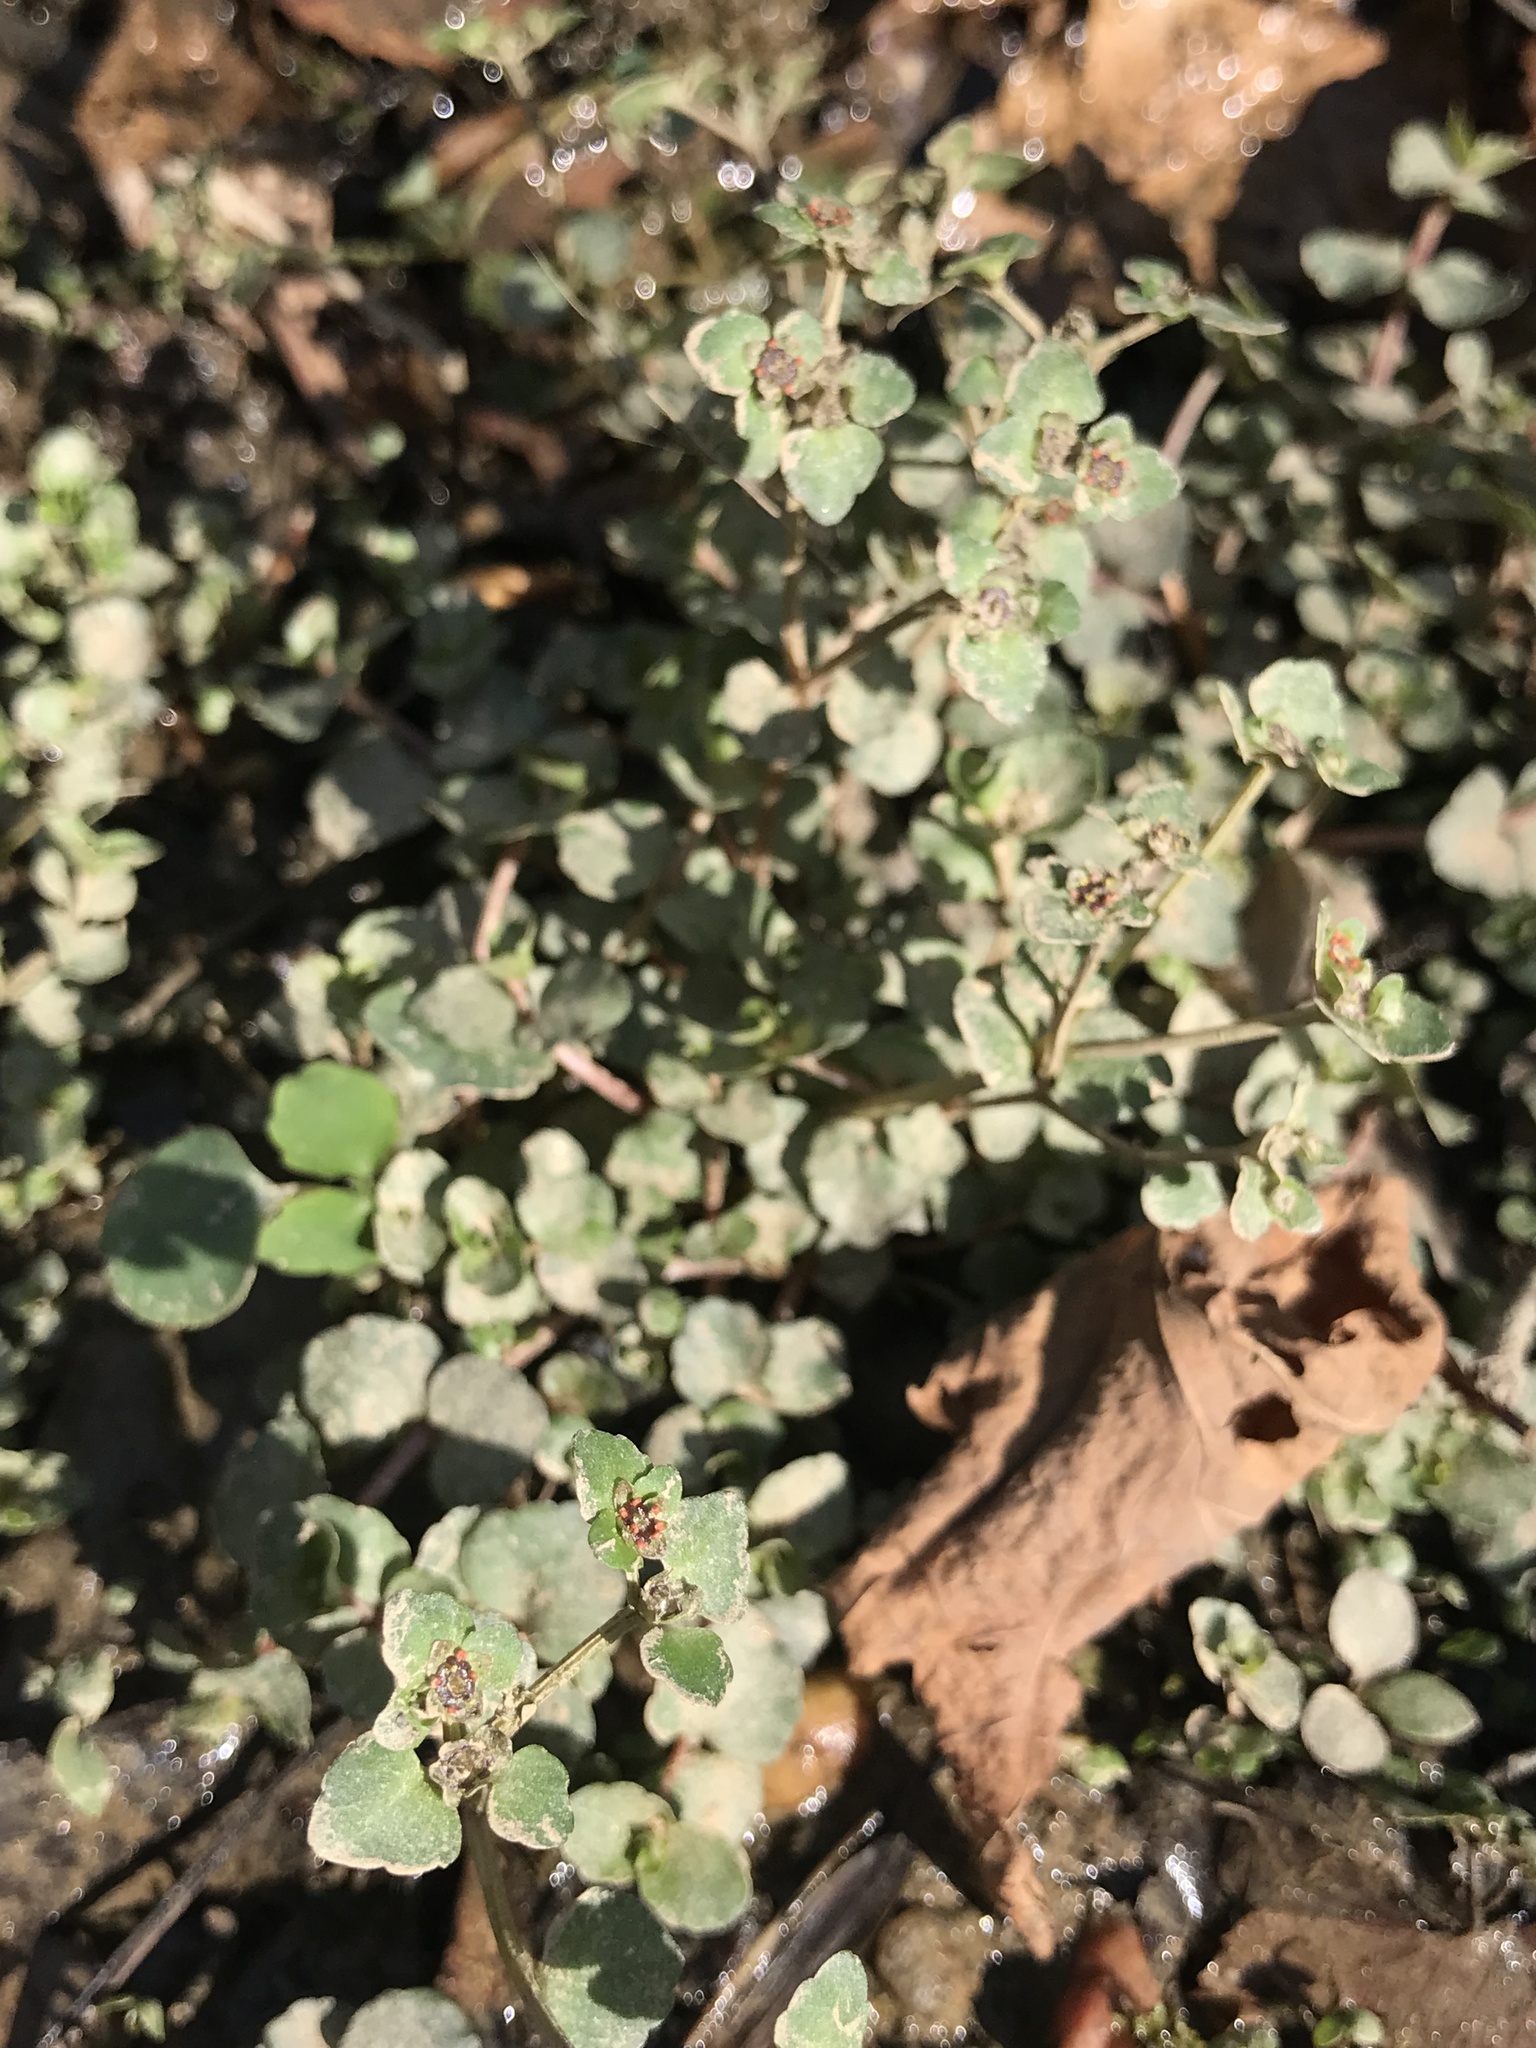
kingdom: Plantae
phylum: Tracheophyta
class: Magnoliopsida
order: Saxifragales
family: Saxifragaceae
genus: Chrysosplenium
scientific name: Chrysosplenium americanum
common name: American golden-saxifrage
